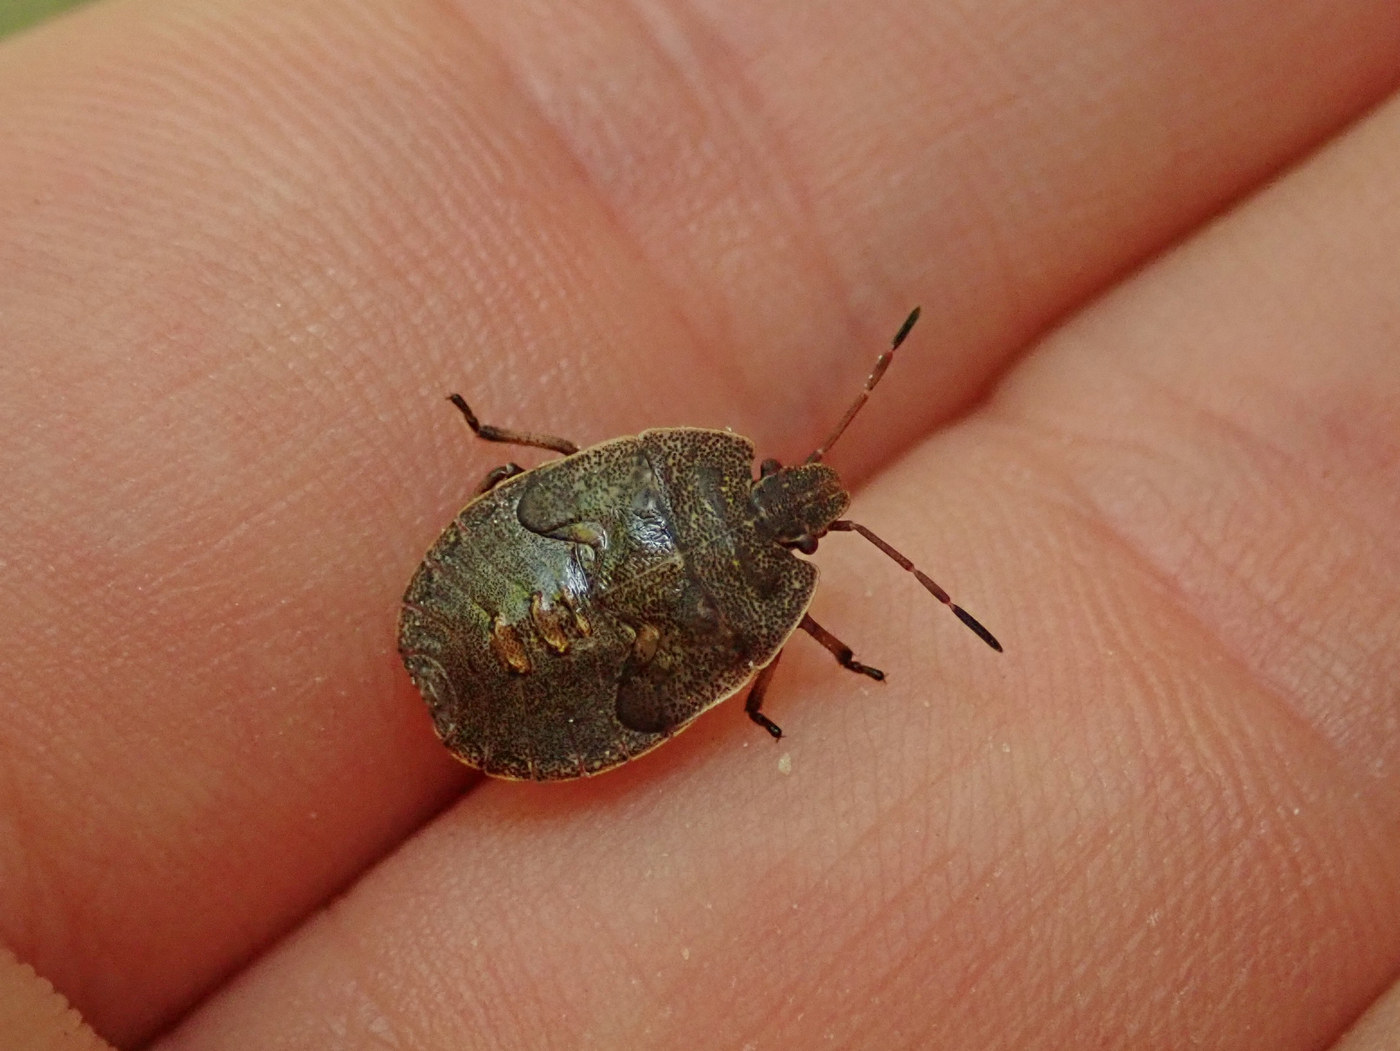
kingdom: Animalia
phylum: Arthropoda
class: Insecta
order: Hemiptera
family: Pentatomidae
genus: Menecles
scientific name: Menecles insertus
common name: Elf shoe stink bug
